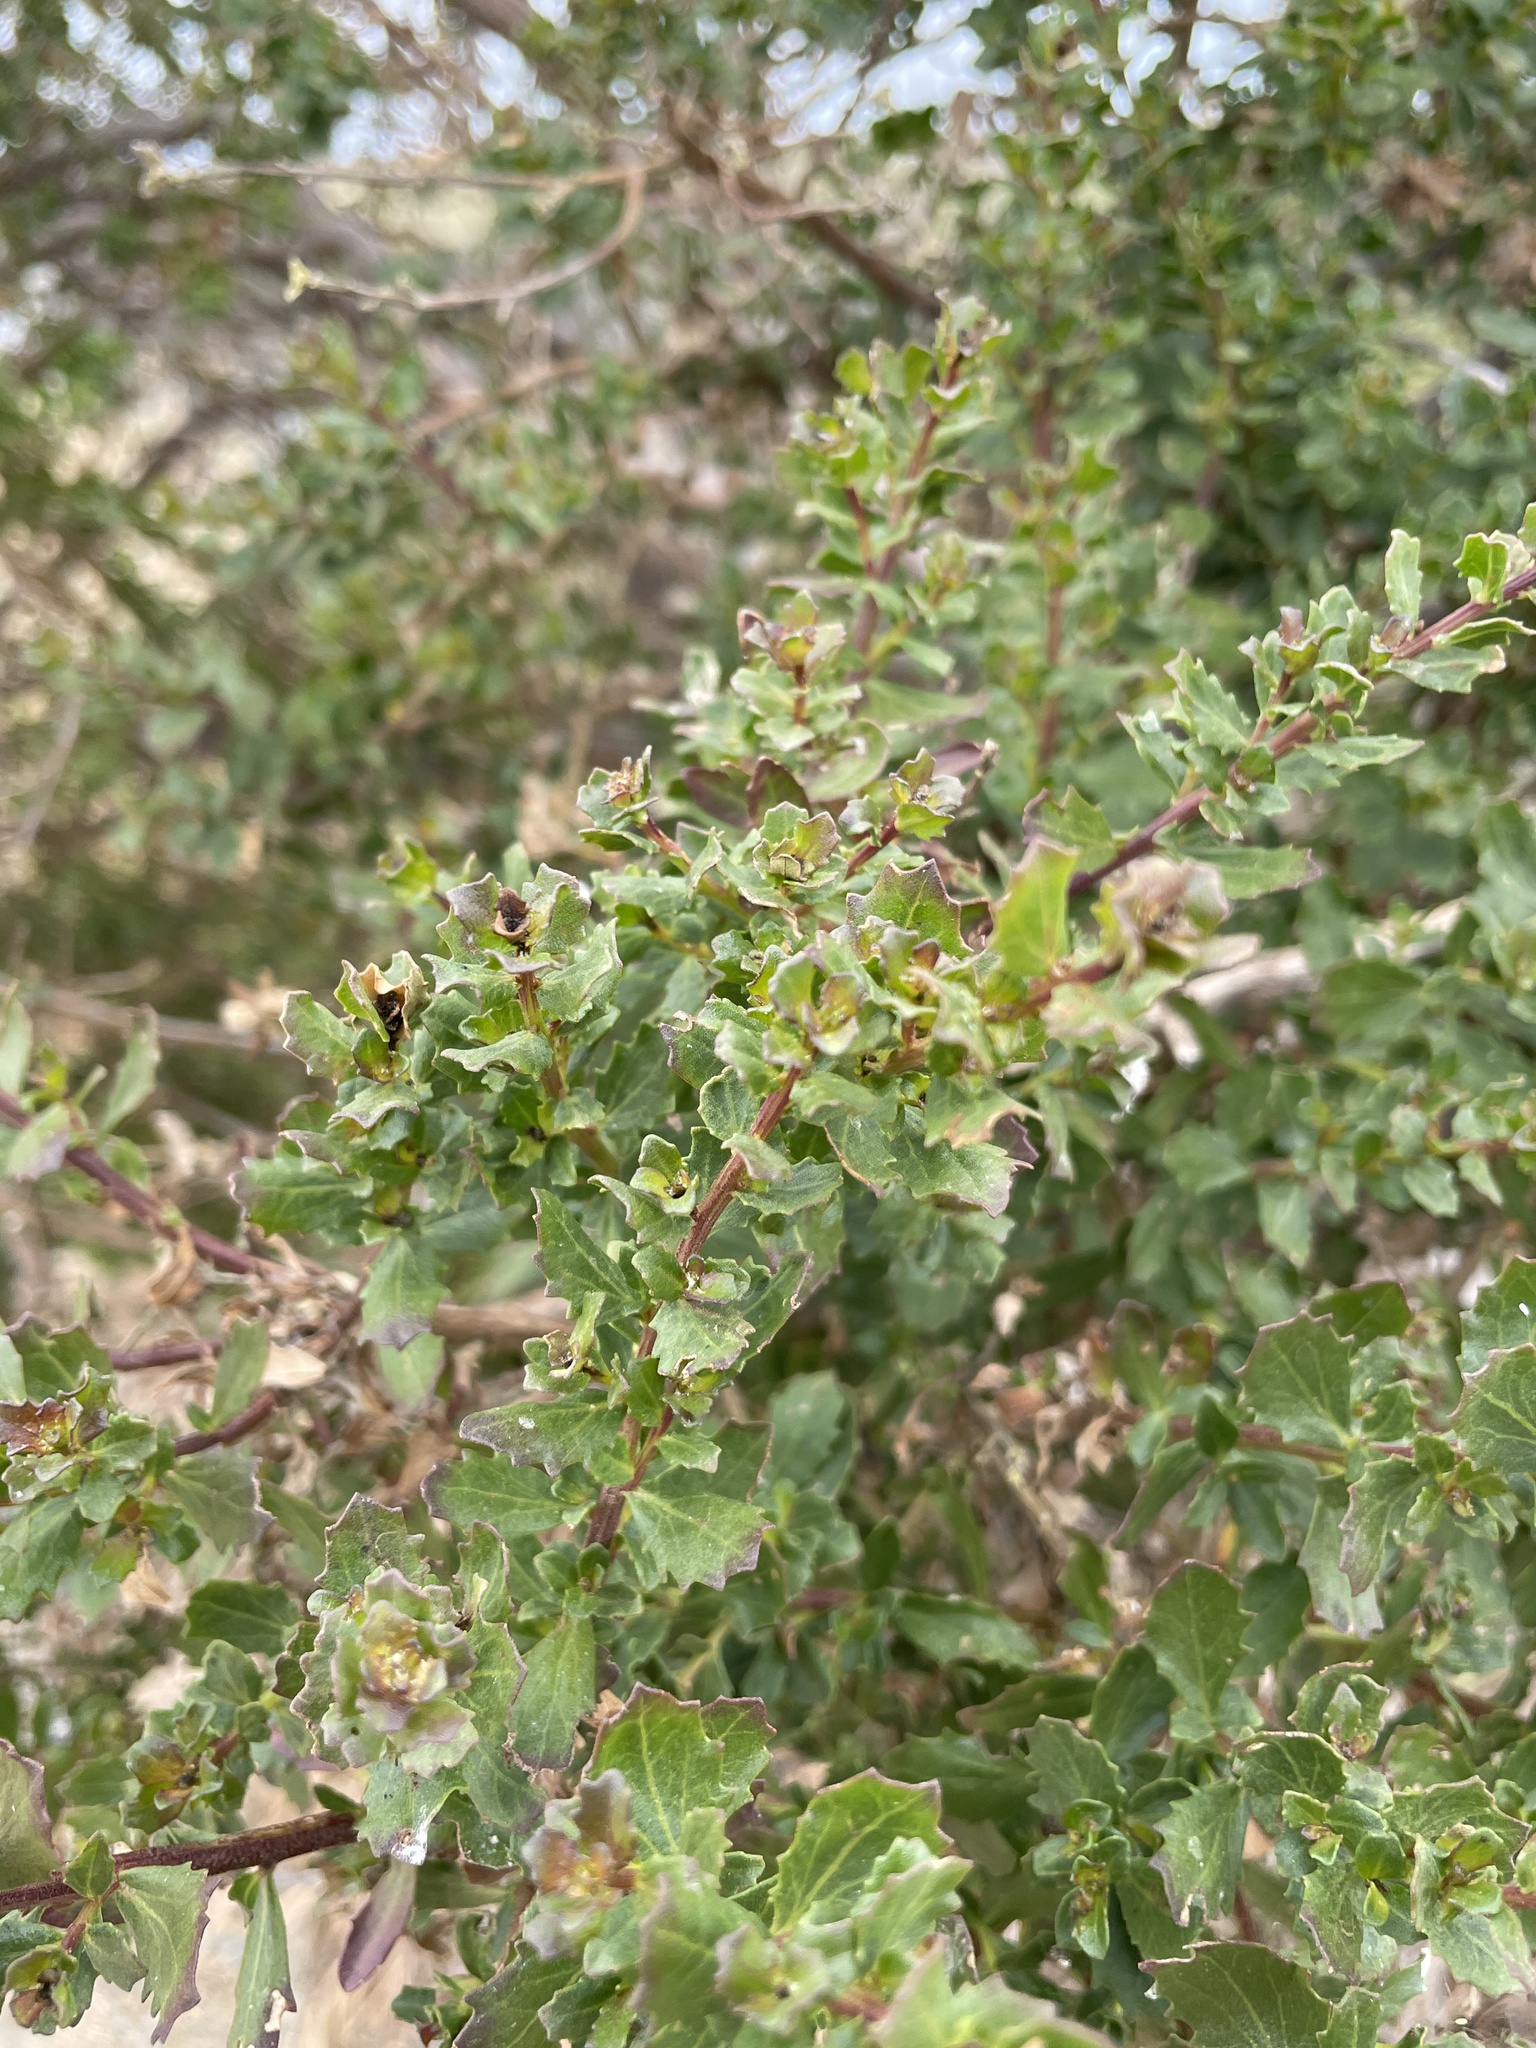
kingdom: Plantae
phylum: Tracheophyta
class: Magnoliopsida
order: Asterales
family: Asteraceae
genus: Baccharis
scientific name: Baccharis pilularis
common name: Coyotebrush
